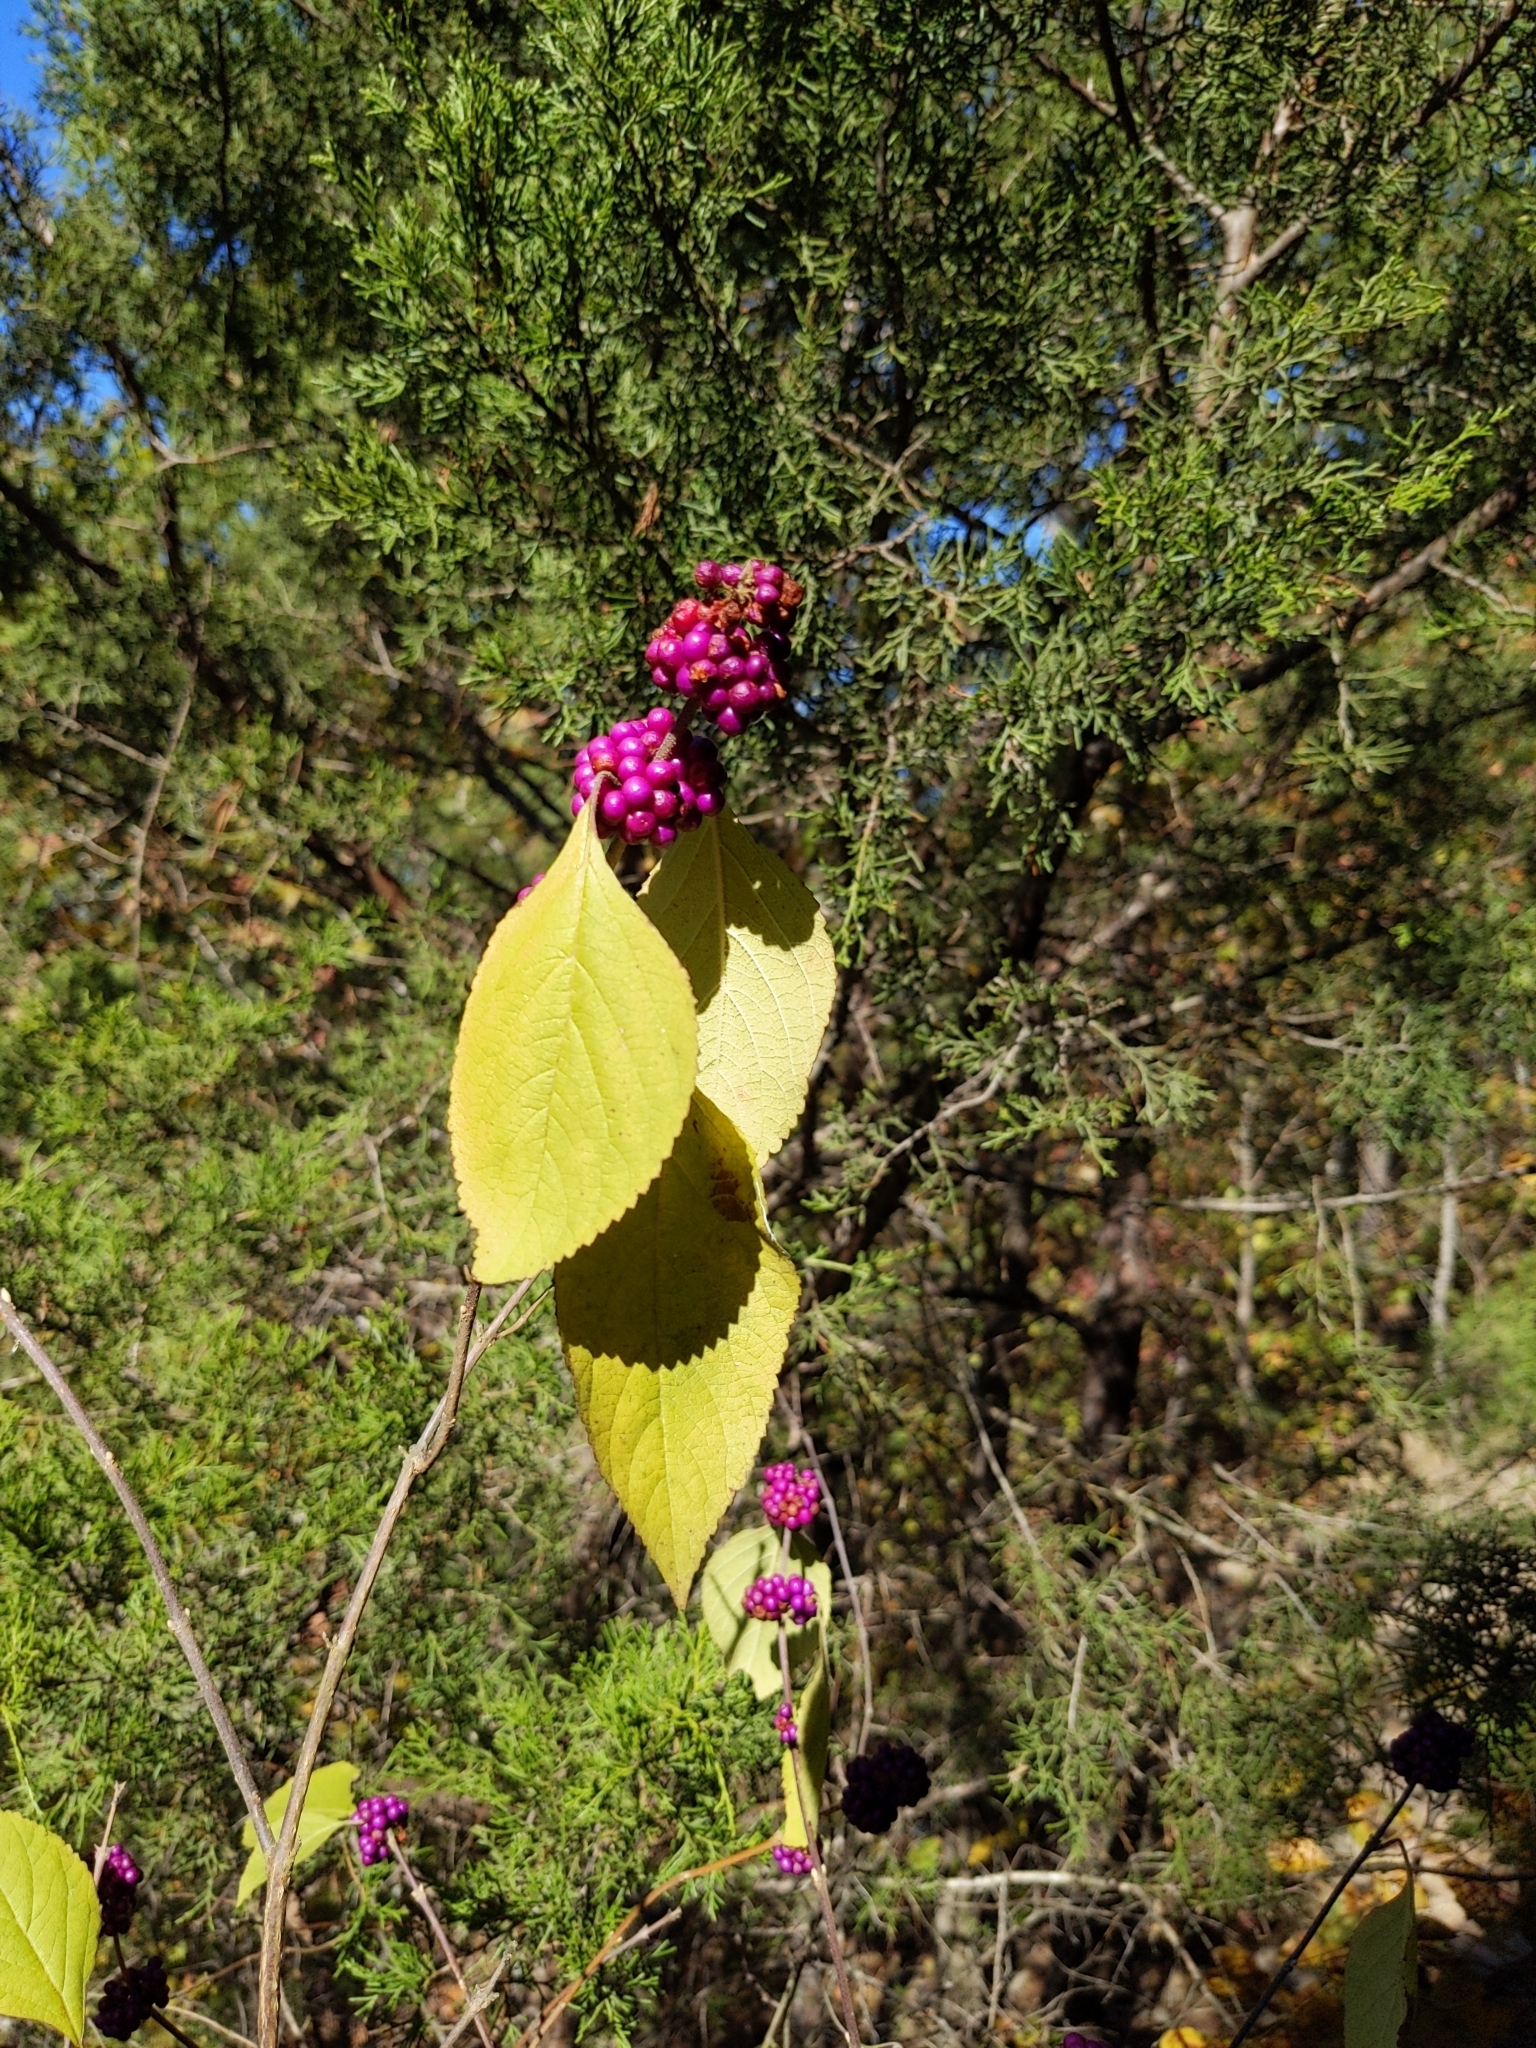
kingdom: Plantae
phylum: Tracheophyta
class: Magnoliopsida
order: Lamiales
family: Lamiaceae
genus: Callicarpa
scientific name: Callicarpa americana
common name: American beautyberry
